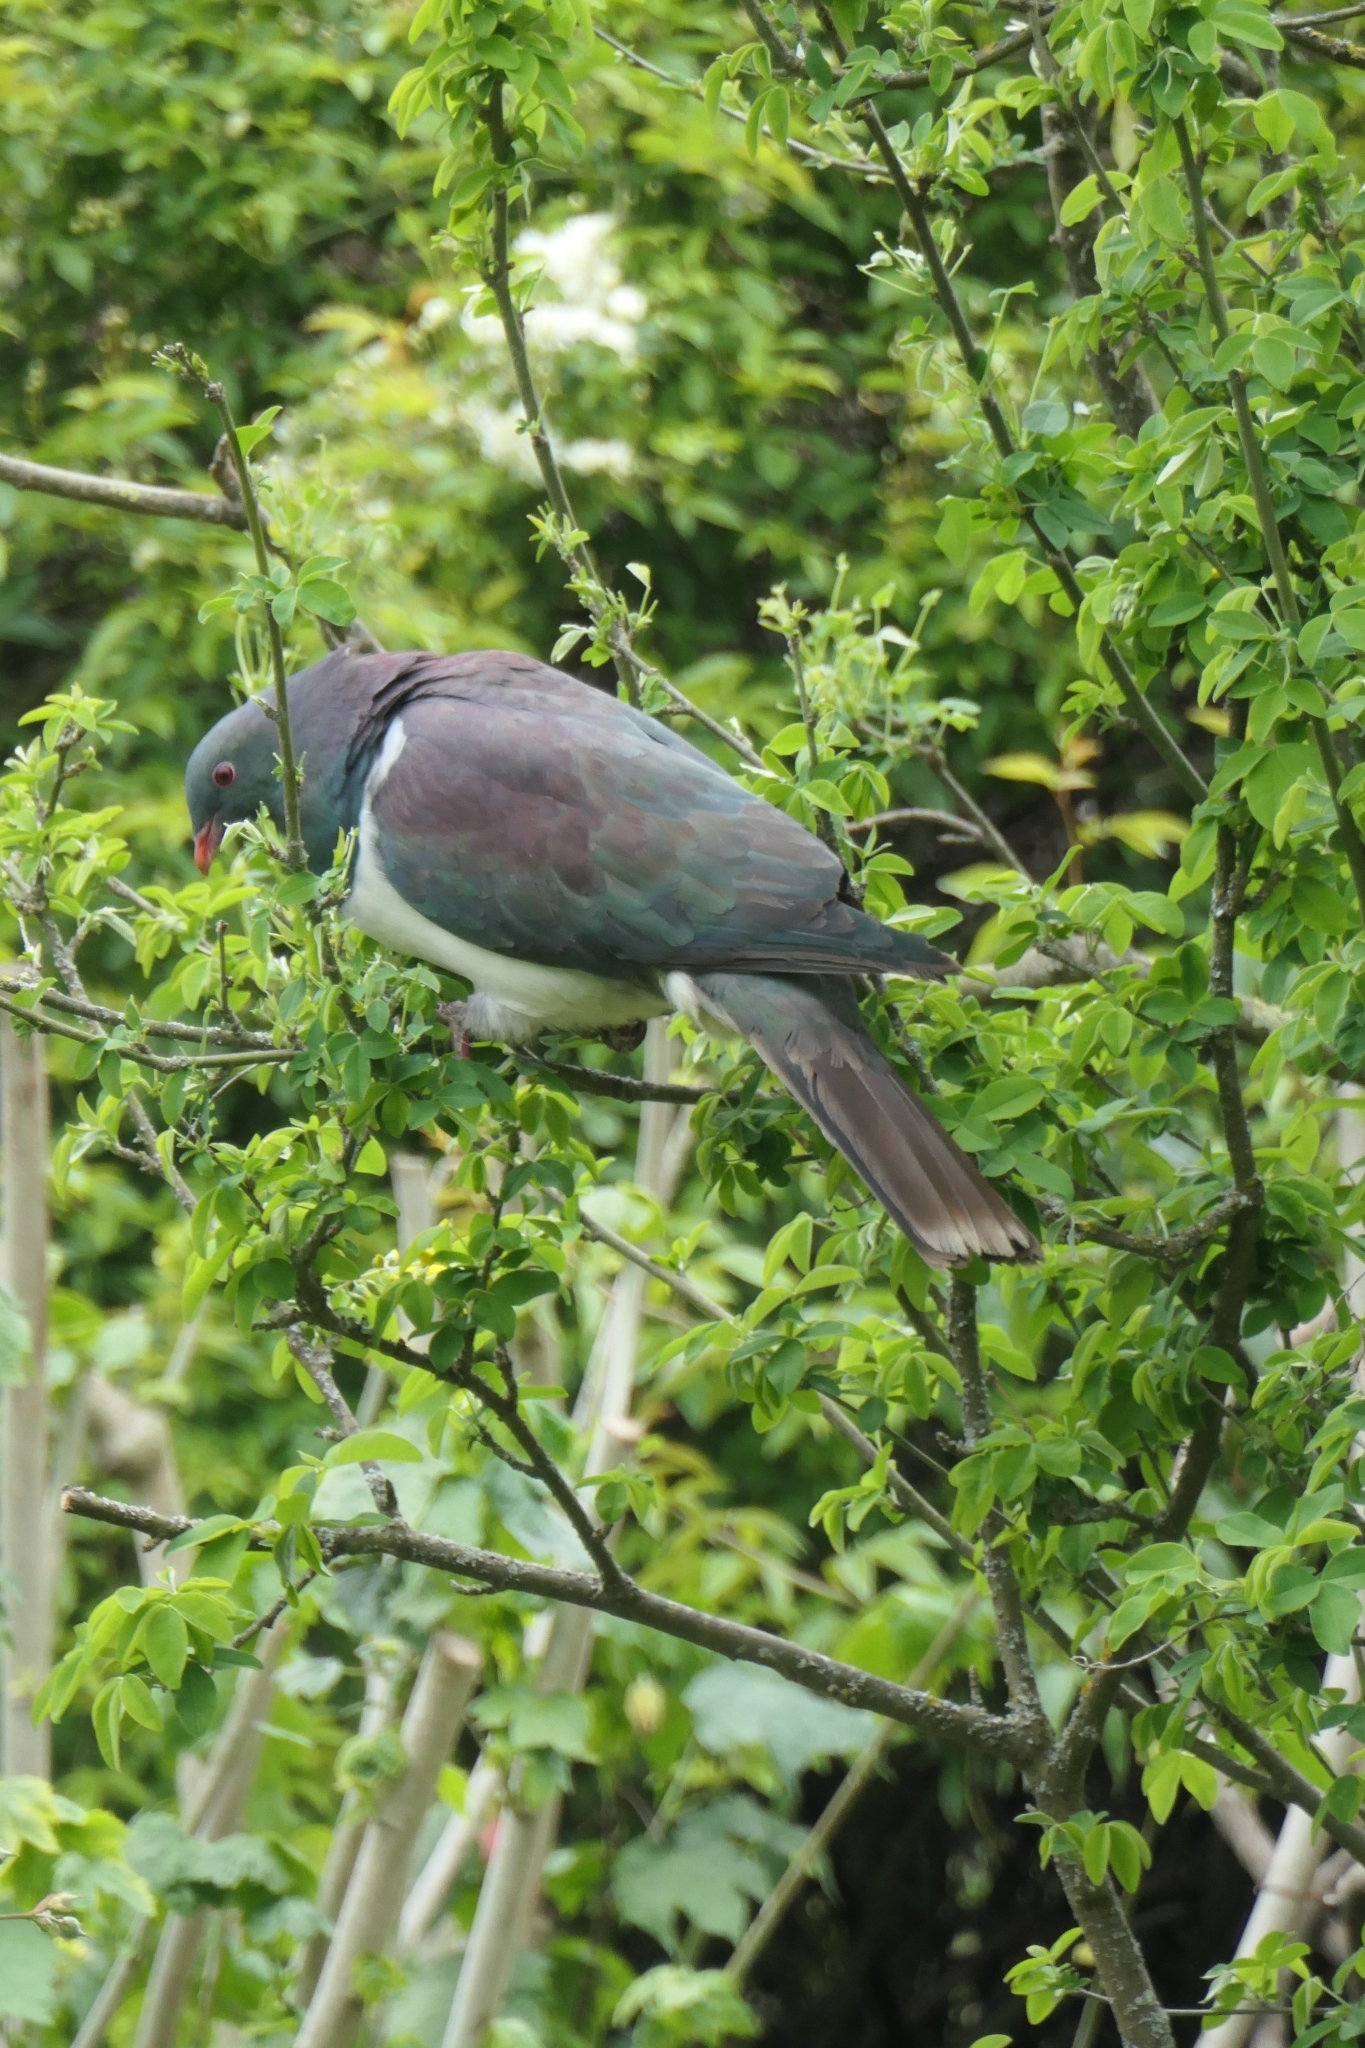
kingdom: Animalia
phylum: Chordata
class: Aves
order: Columbiformes
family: Columbidae
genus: Hemiphaga
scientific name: Hemiphaga novaeseelandiae
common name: New zealand pigeon
